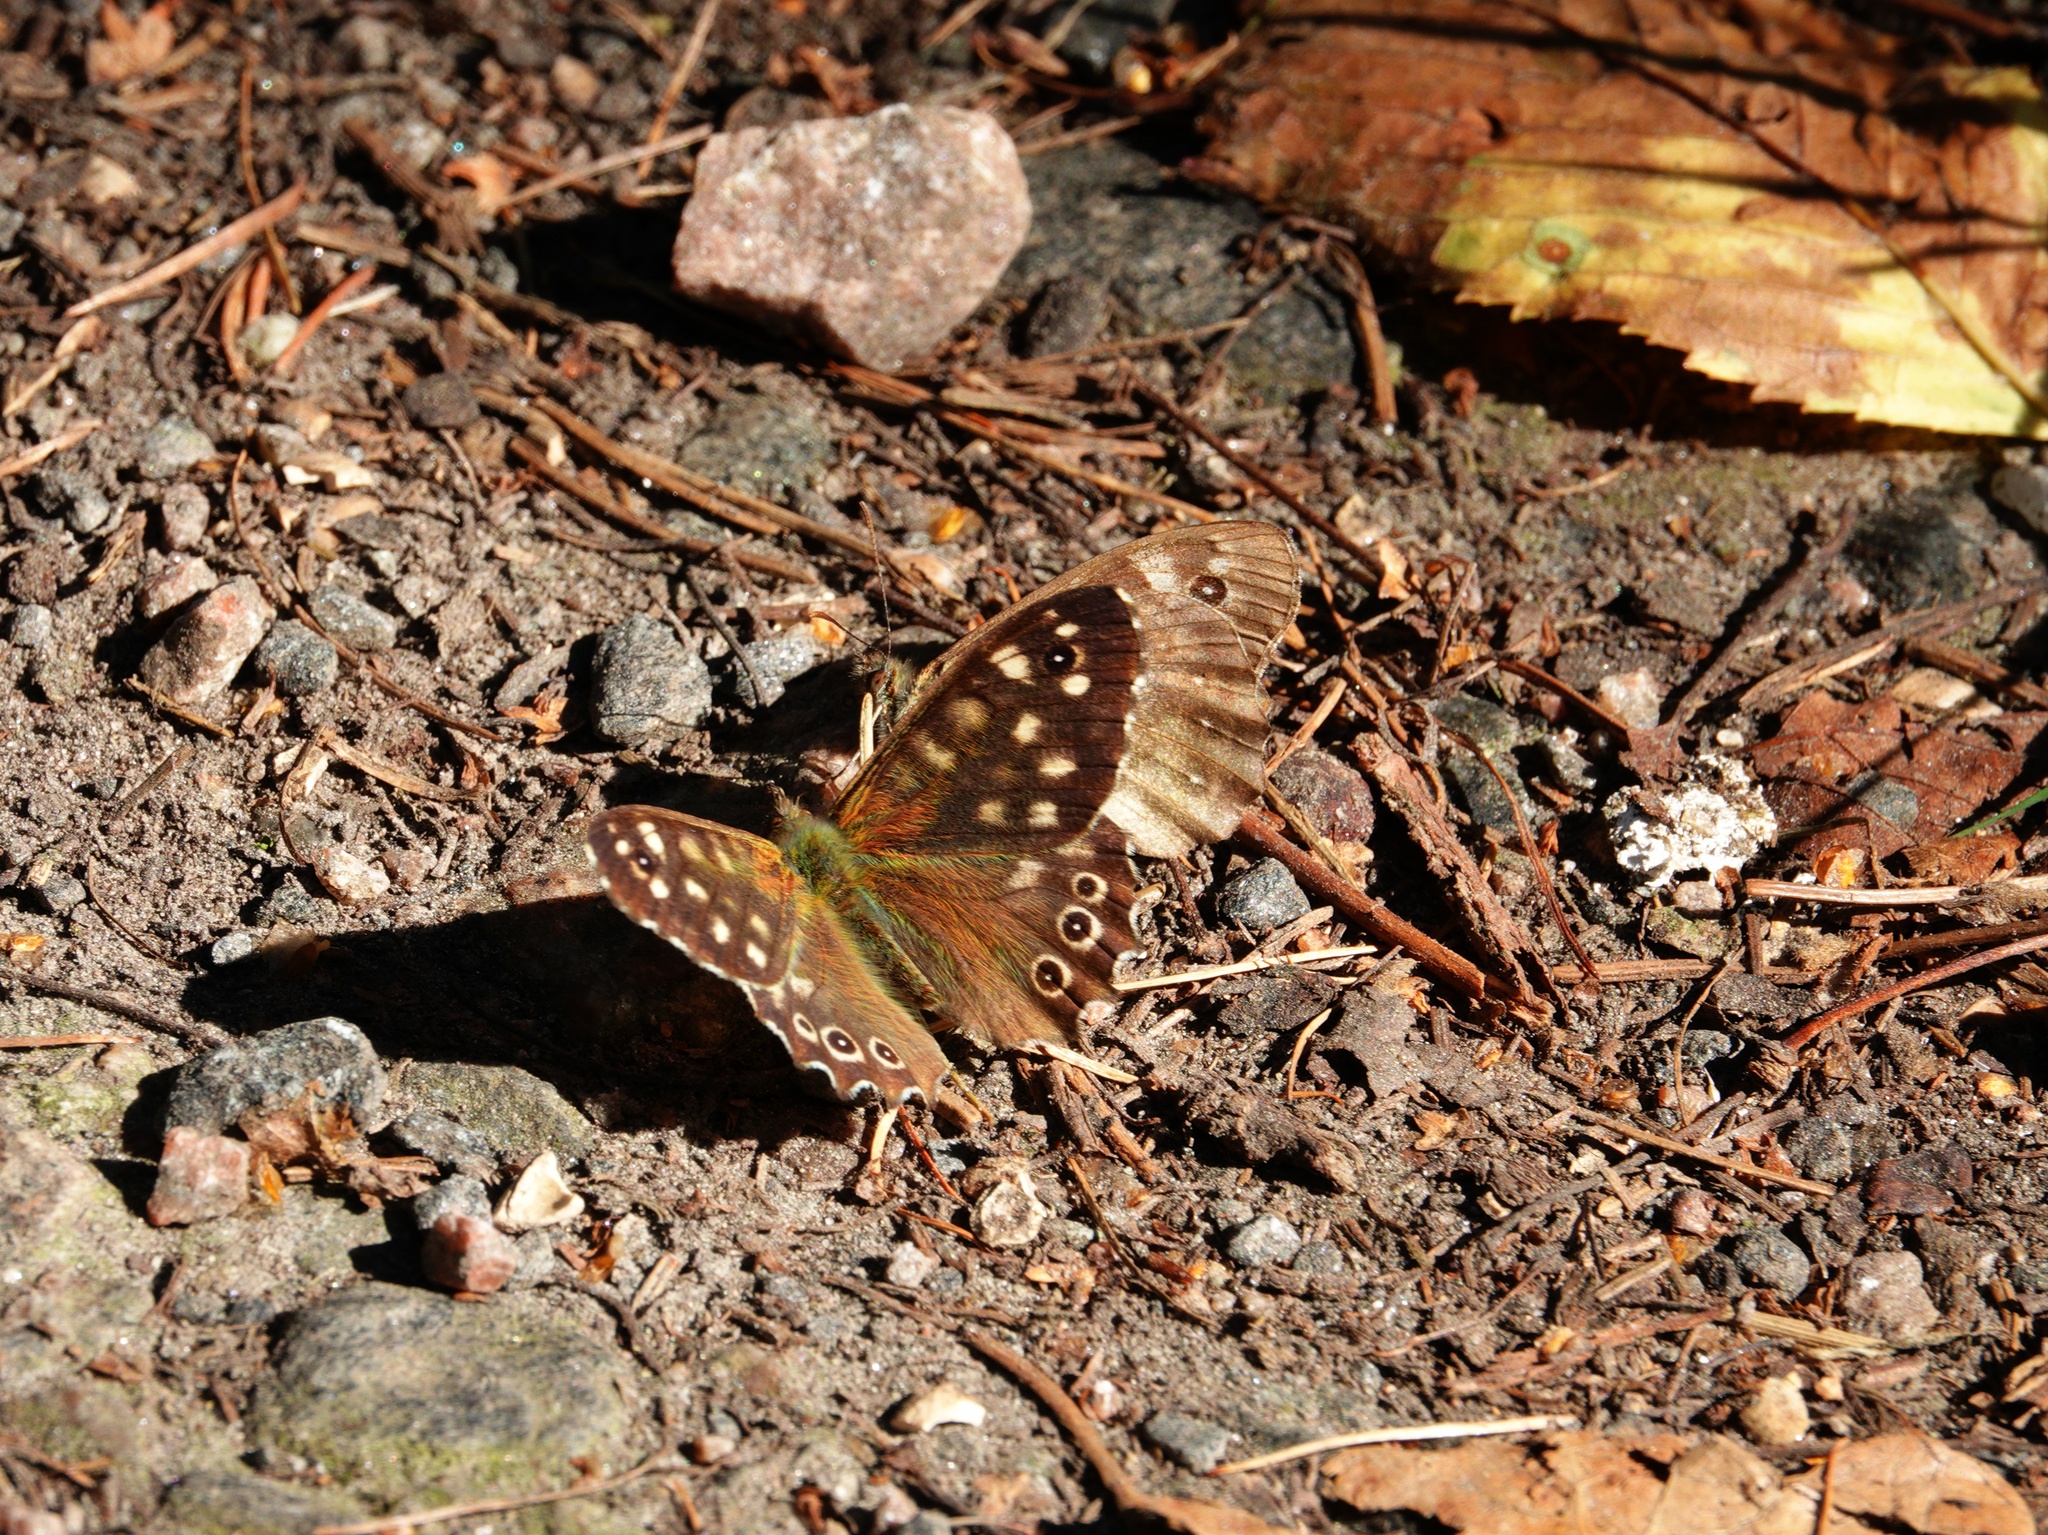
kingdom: Animalia
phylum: Arthropoda
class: Insecta
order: Lepidoptera
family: Nymphalidae
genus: Pararge
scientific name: Pararge aegeria
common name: Speckled wood
